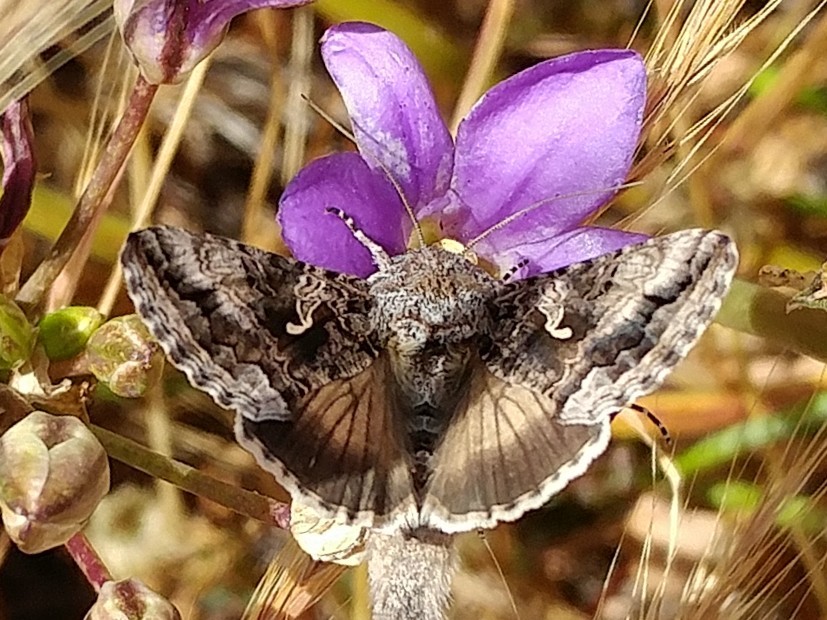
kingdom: Animalia
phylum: Arthropoda
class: Insecta
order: Lepidoptera
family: Noctuidae
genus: Autographa
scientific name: Autographa californica
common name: Alfalfa looper
